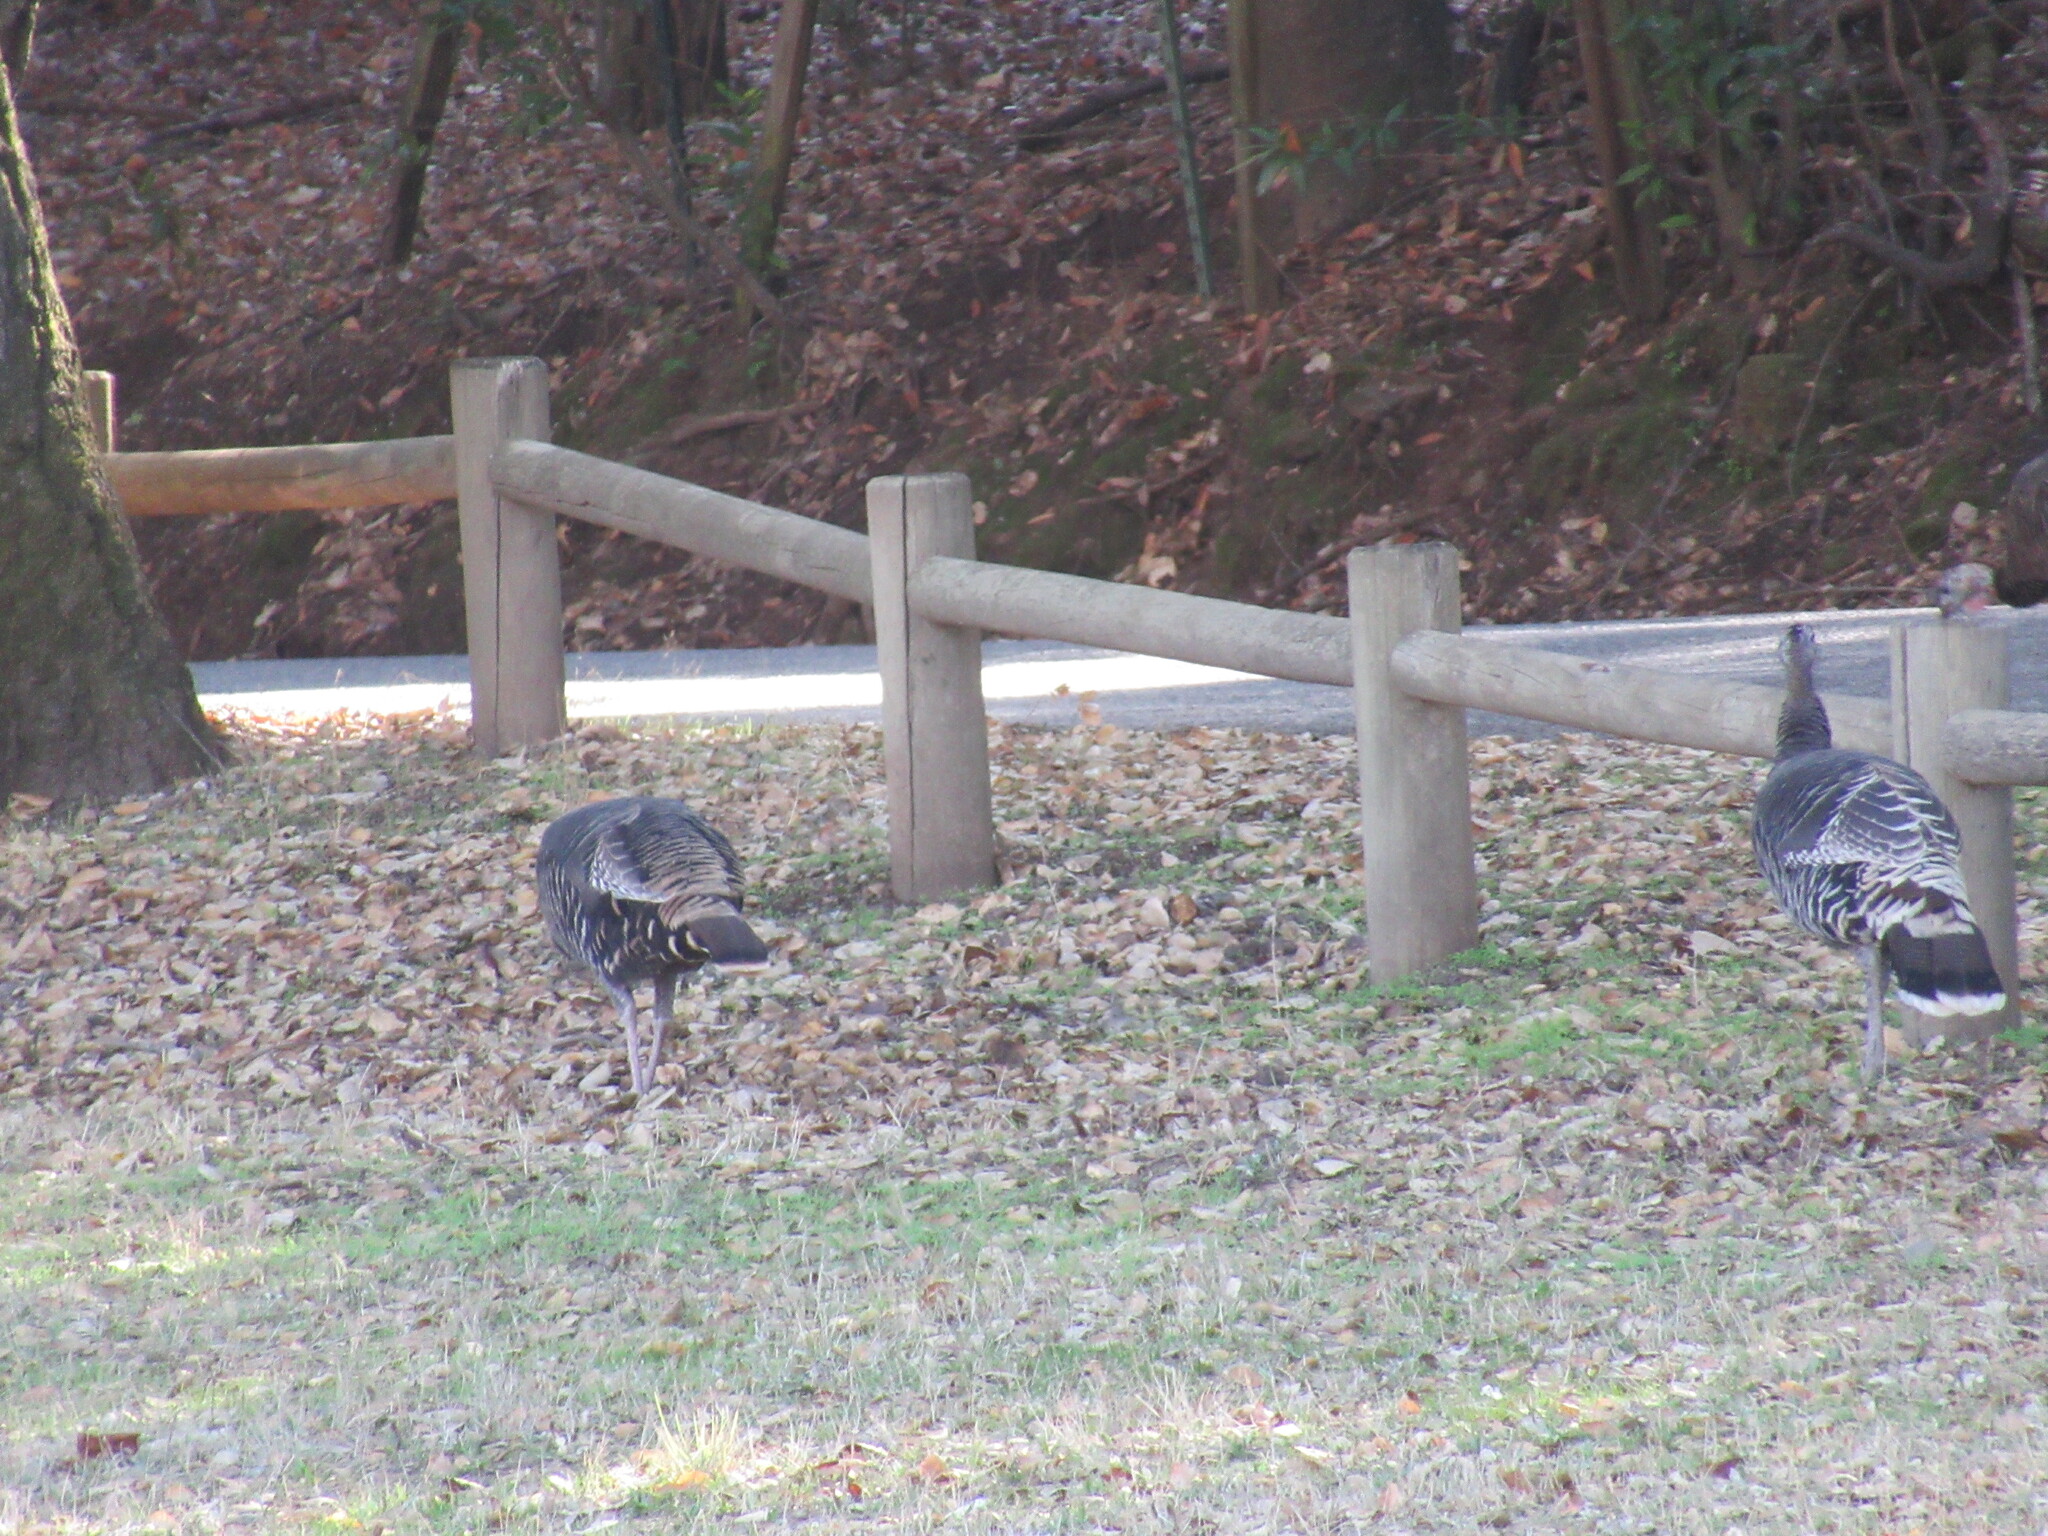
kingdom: Animalia
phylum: Chordata
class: Aves
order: Galliformes
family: Phasianidae
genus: Meleagris
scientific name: Meleagris gallopavo
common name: Wild turkey
